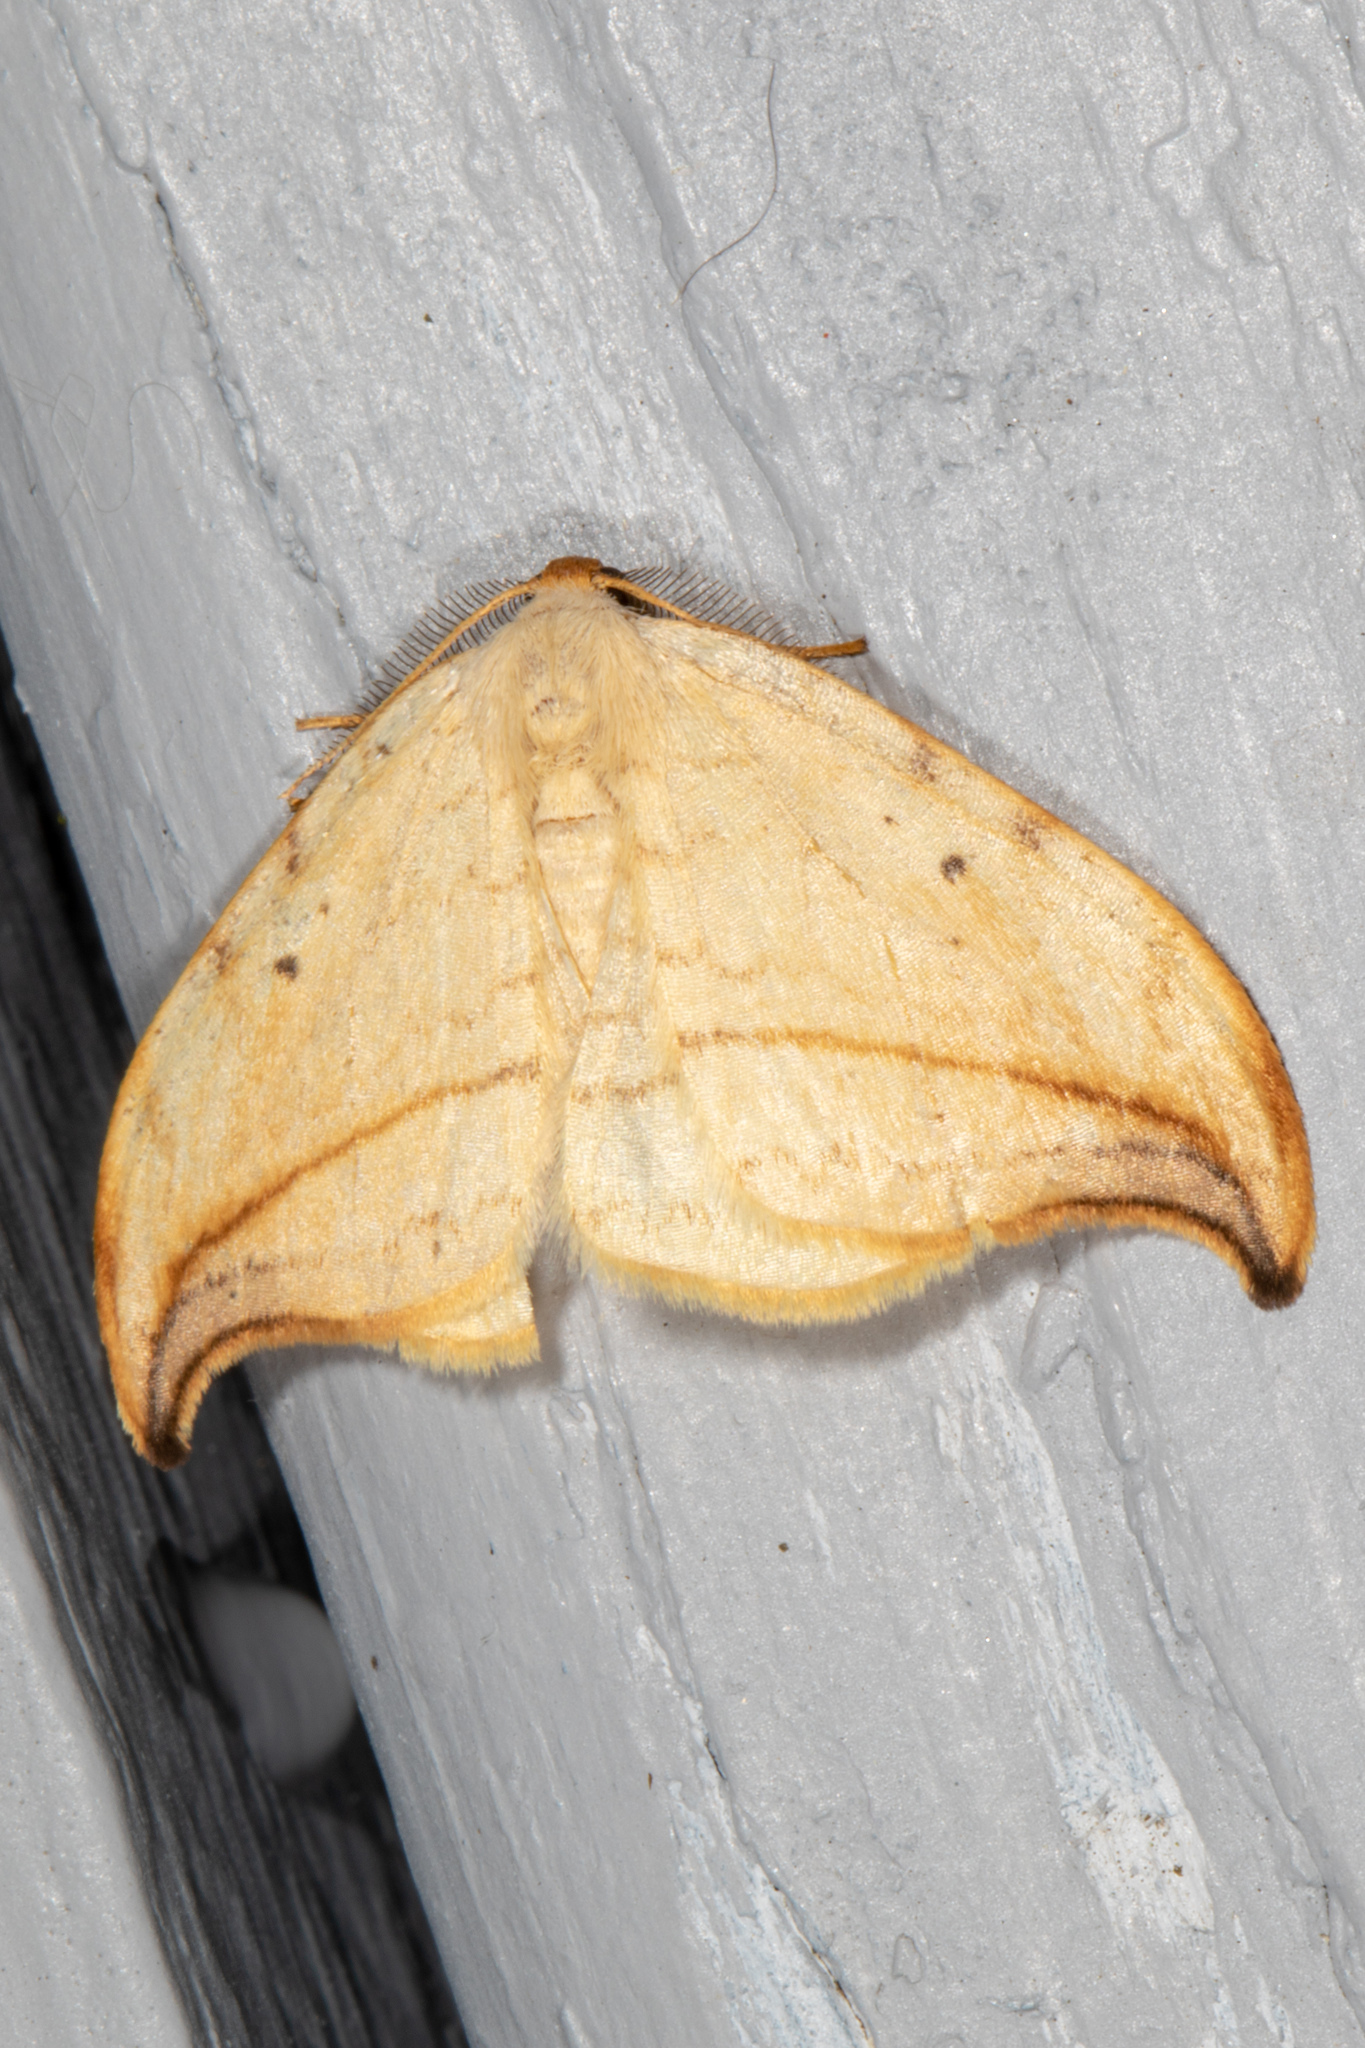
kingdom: Animalia
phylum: Arthropoda
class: Insecta
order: Lepidoptera
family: Drepanidae
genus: Drepana
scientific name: Drepana arcuata
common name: Arched hooktip moth
